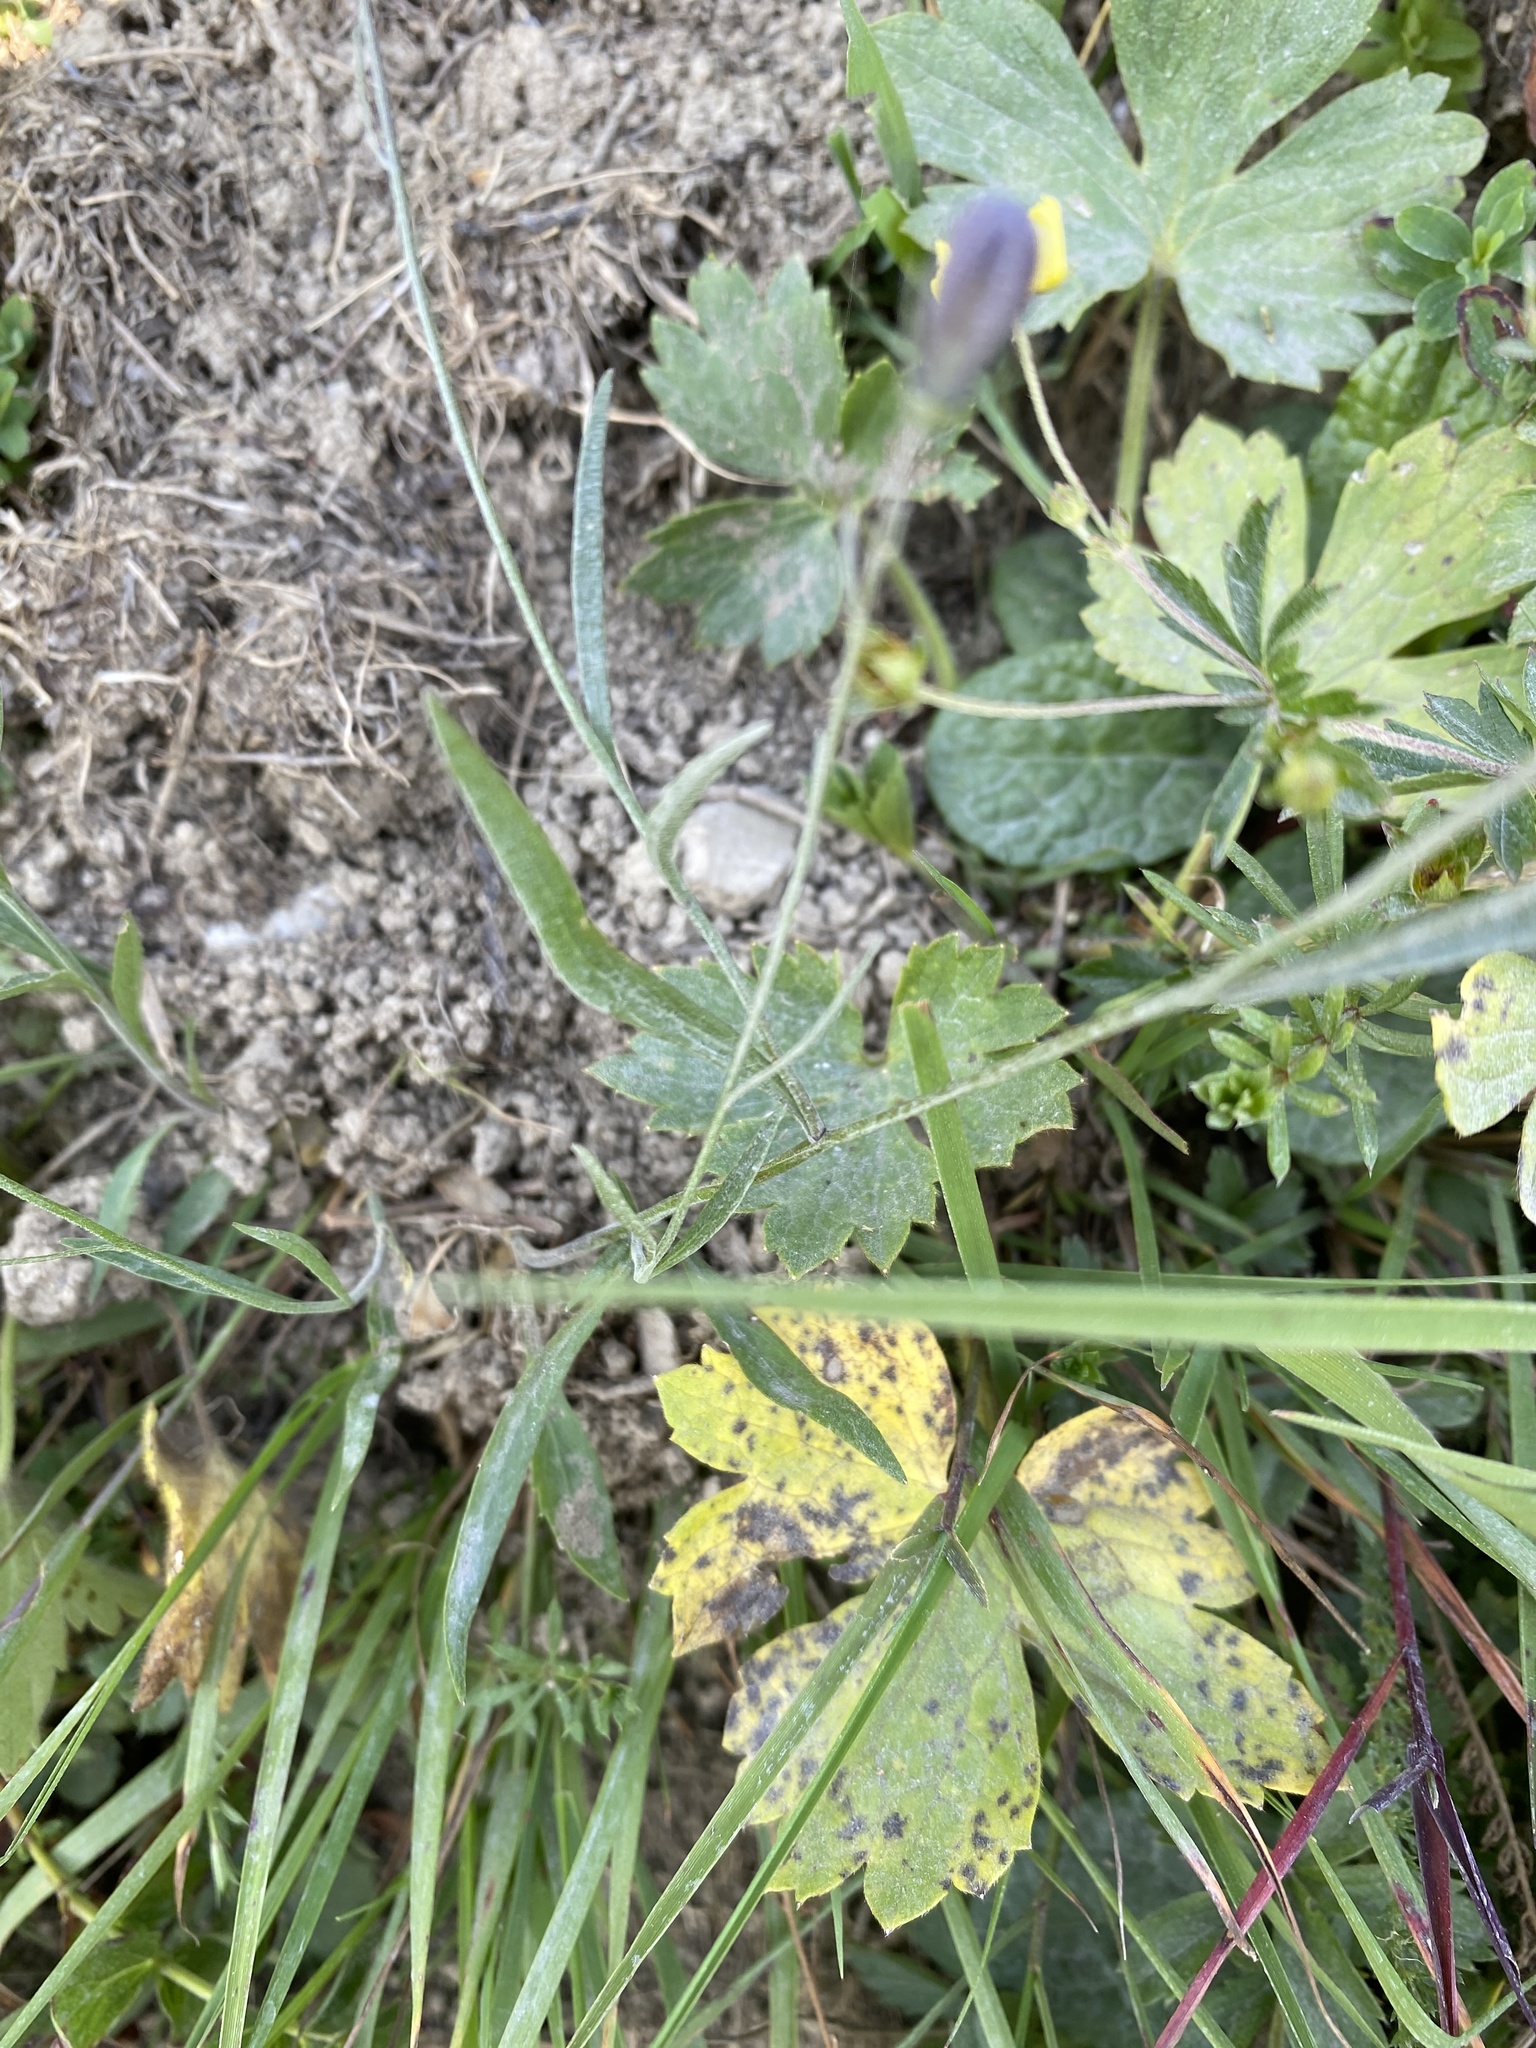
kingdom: Plantae
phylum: Tracheophyta
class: Magnoliopsida
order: Asterales
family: Campanulaceae
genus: Campanula
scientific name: Campanula scheuchzeri
